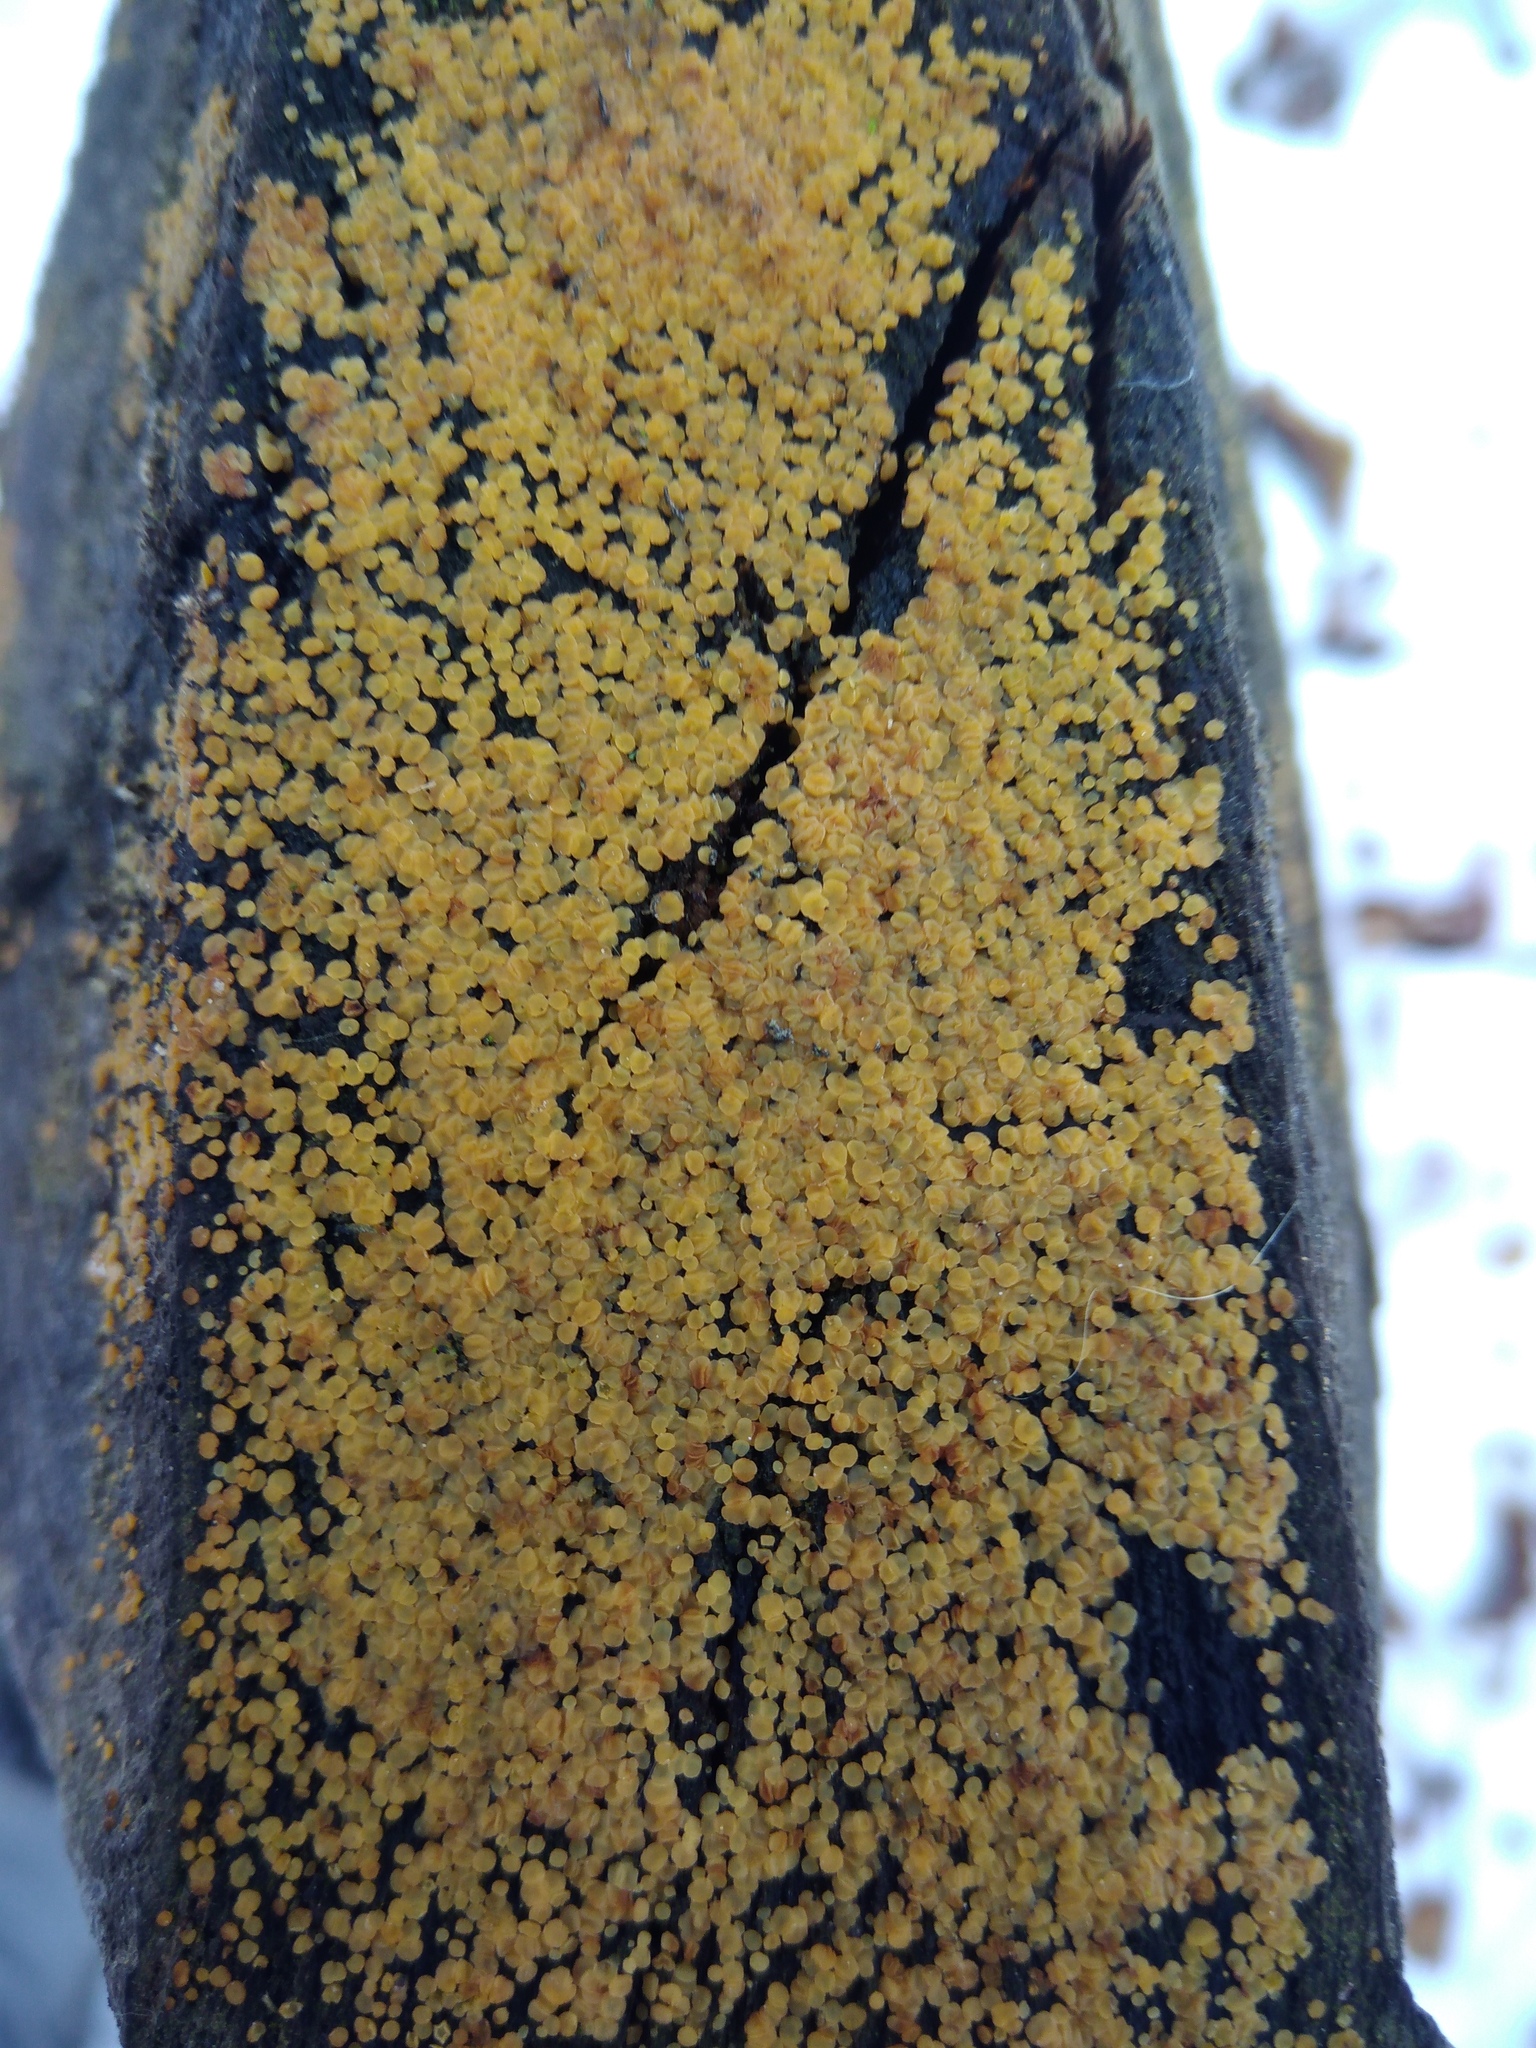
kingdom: Fungi
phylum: Ascomycota
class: Leotiomycetes
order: Helotiales
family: Pezizellaceae
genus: Calycina
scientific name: Calycina citrina
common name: Yellow fairy cups
